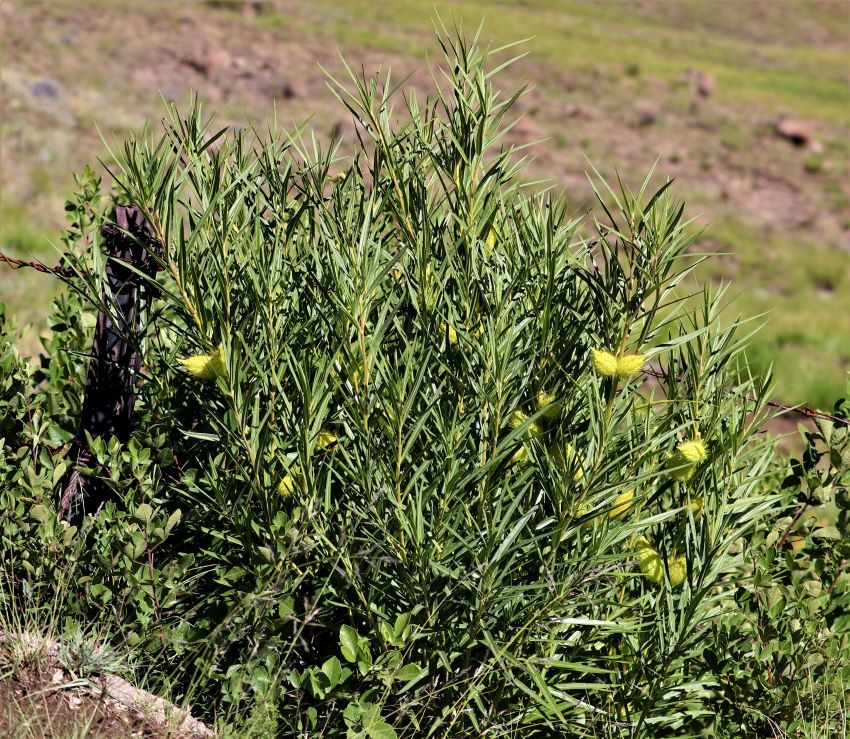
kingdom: Plantae
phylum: Tracheophyta
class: Magnoliopsida
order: Gentianales
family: Apocynaceae
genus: Gomphocarpus
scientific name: Gomphocarpus fruticosus
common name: Milkweed
